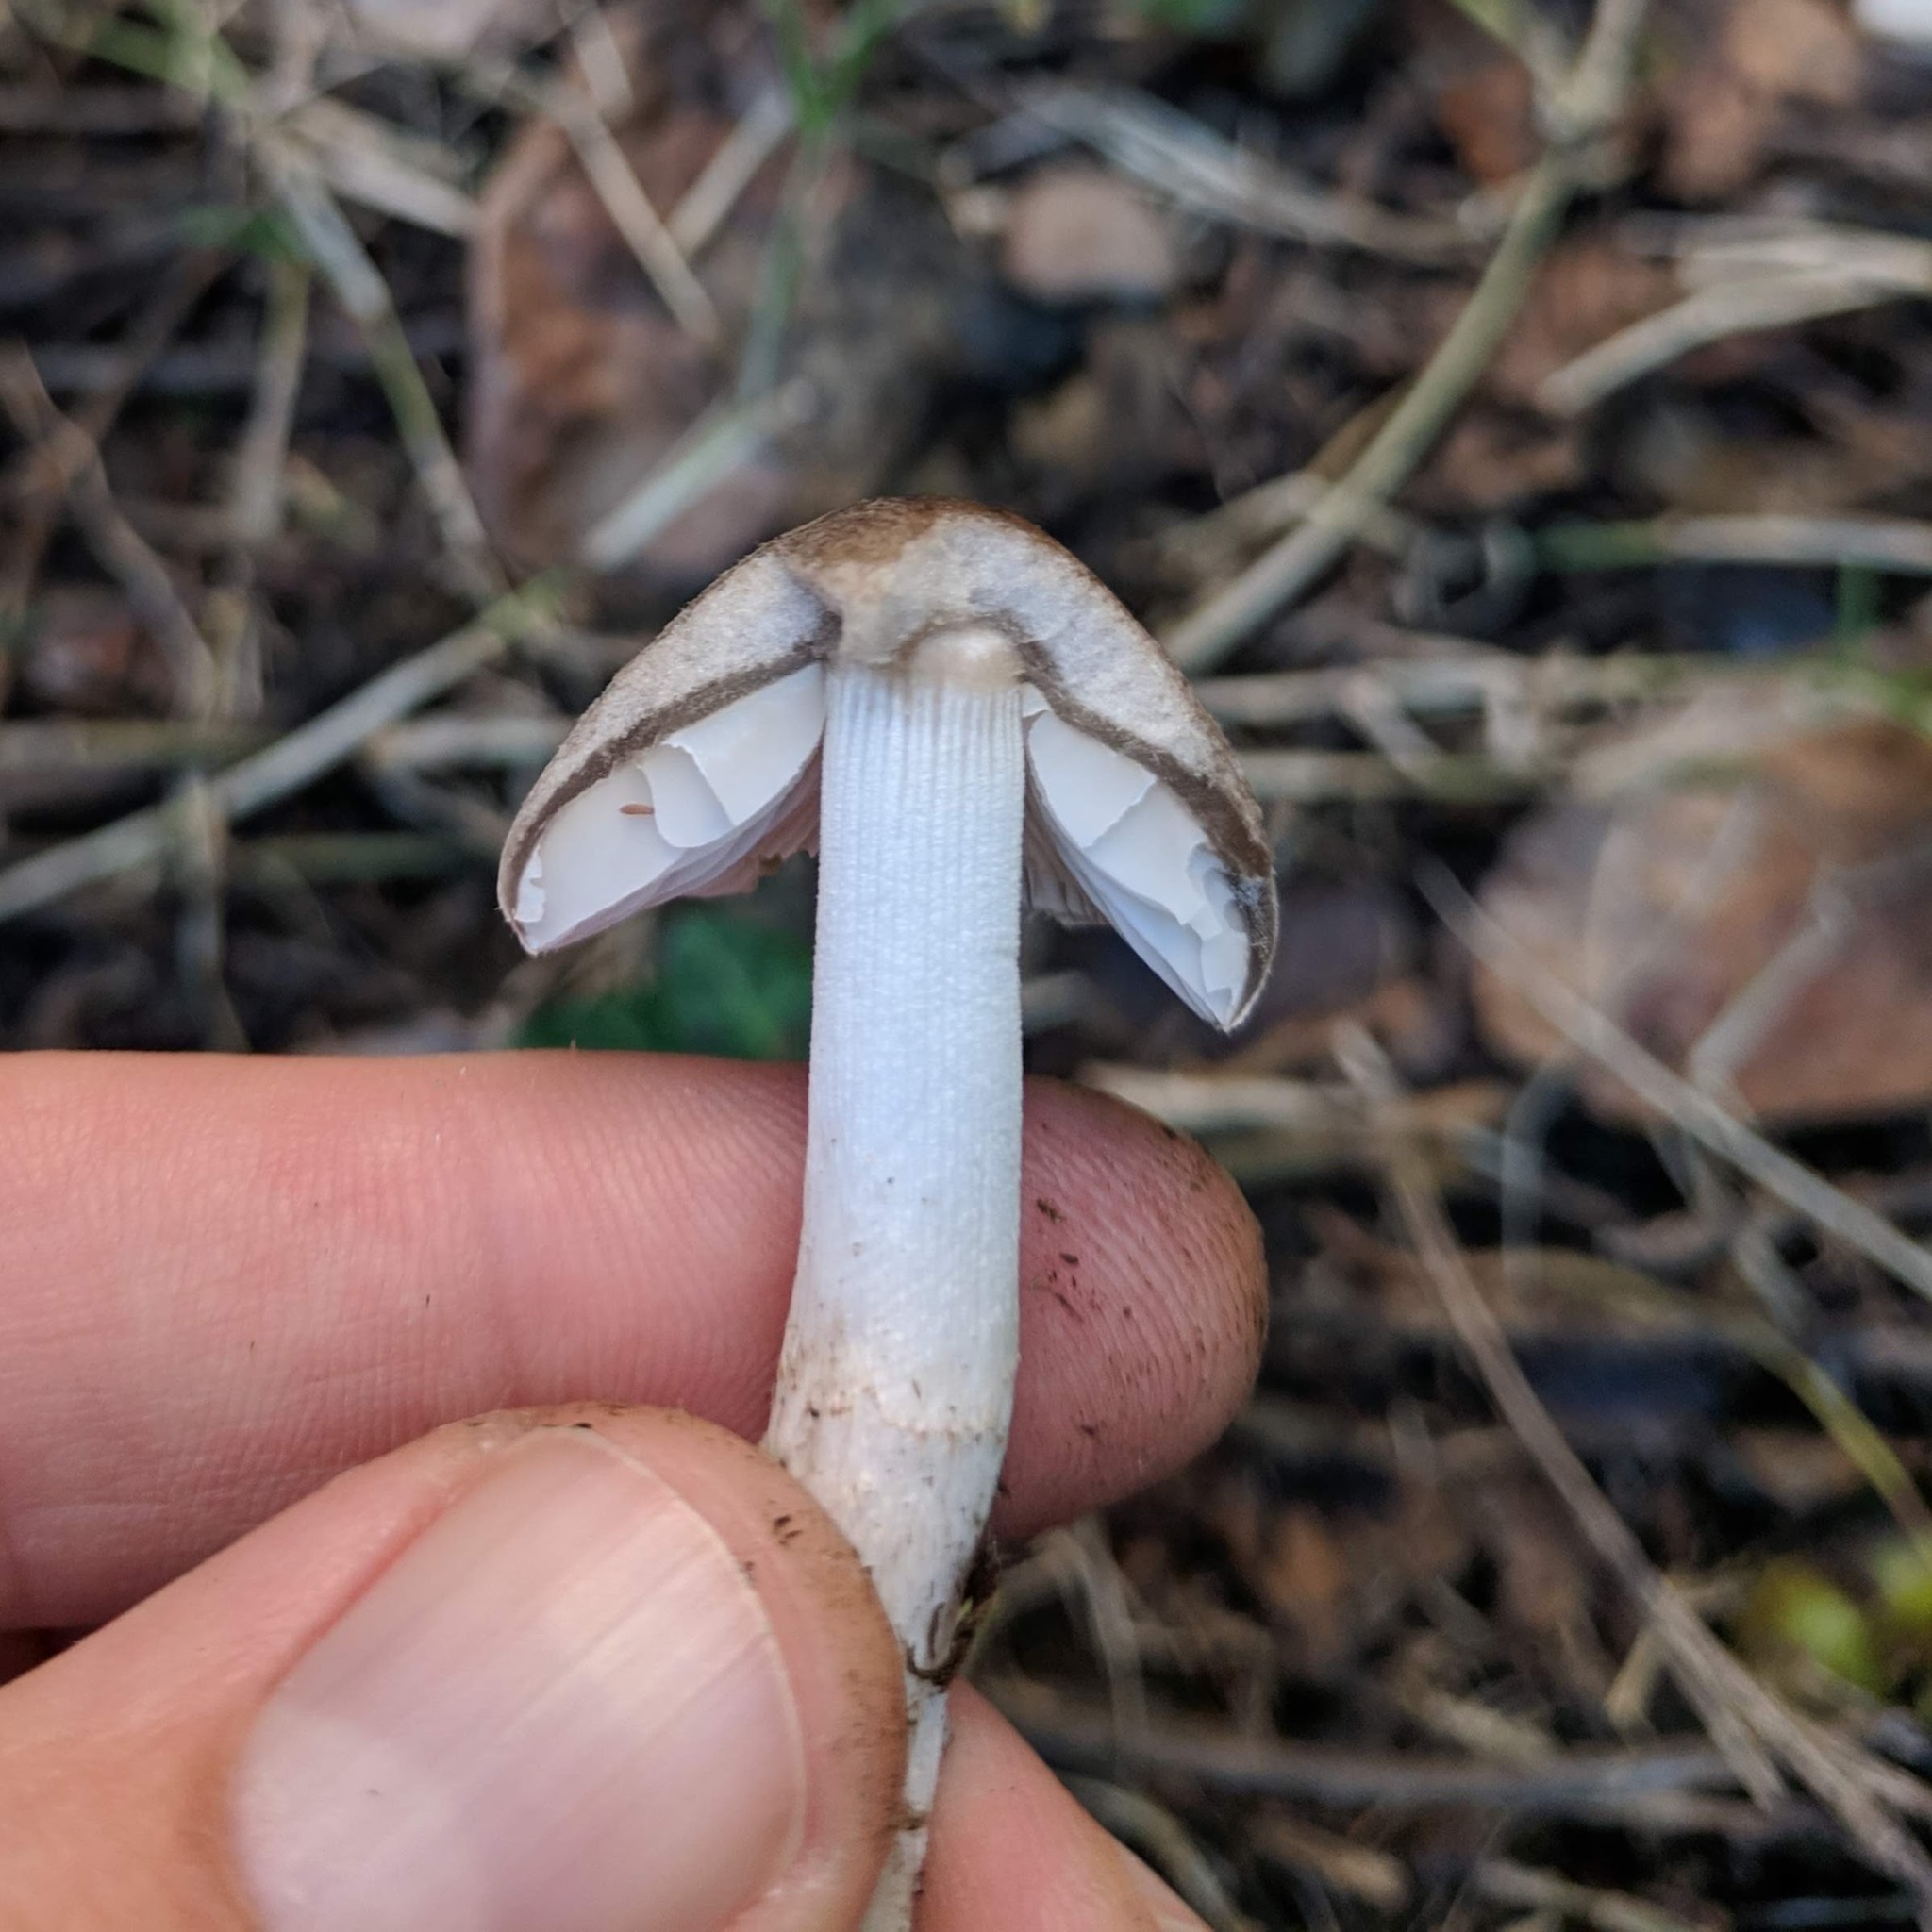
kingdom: Fungi
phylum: Basidiomycota
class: Agaricomycetes
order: Agaricales
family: Psathyrellaceae
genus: Psathyrella
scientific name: Psathyrella uliginicola
